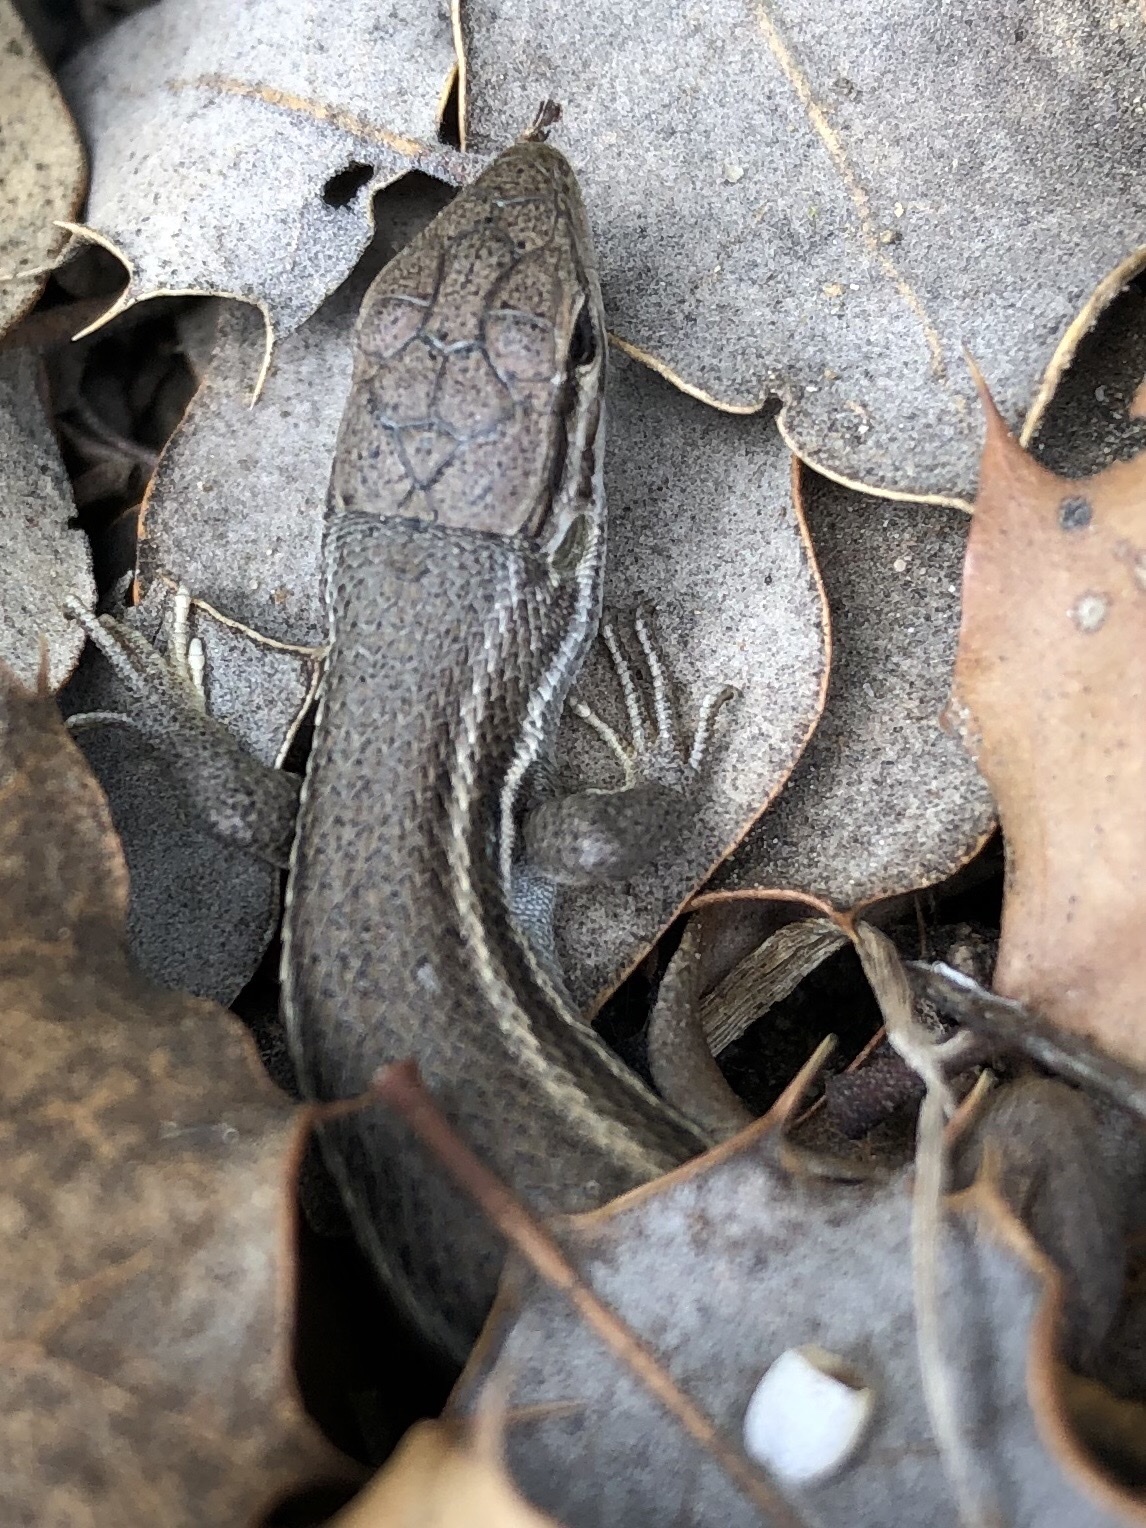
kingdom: Animalia
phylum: Chordata
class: Squamata
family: Lacertidae
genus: Psammodromus
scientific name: Psammodromus algirus
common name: Algerian psammodromus
